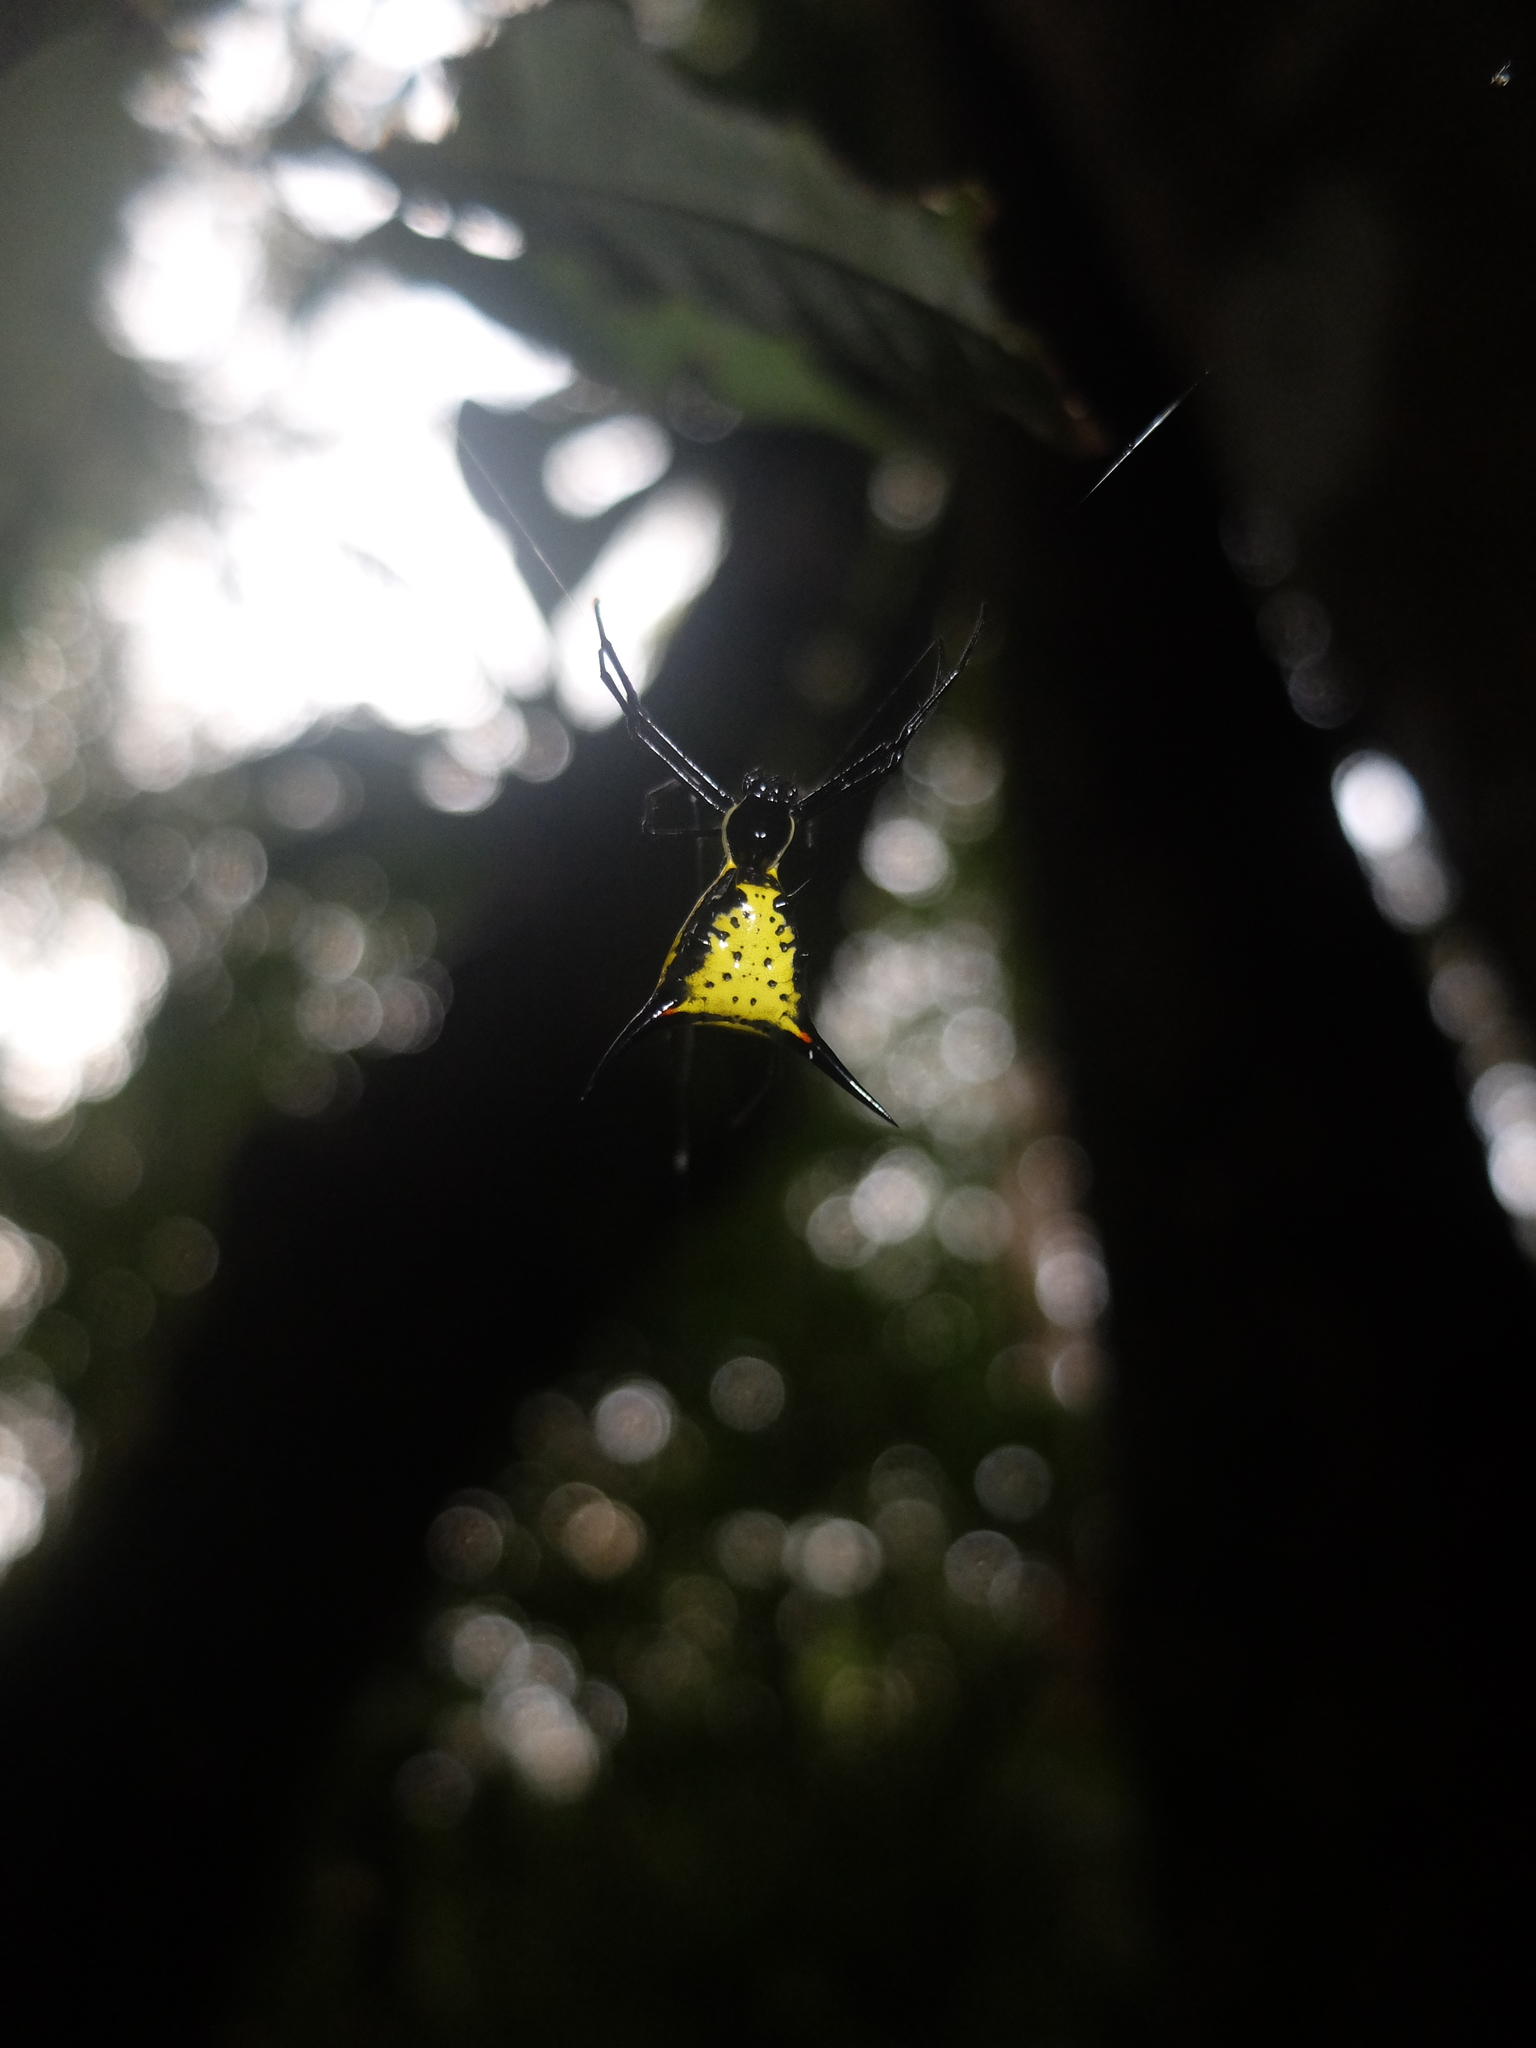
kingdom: Animalia
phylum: Arthropoda
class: Arachnida
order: Araneae
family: Araneidae
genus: Micrathena
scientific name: Micrathena schreibersi
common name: Orb weavers
